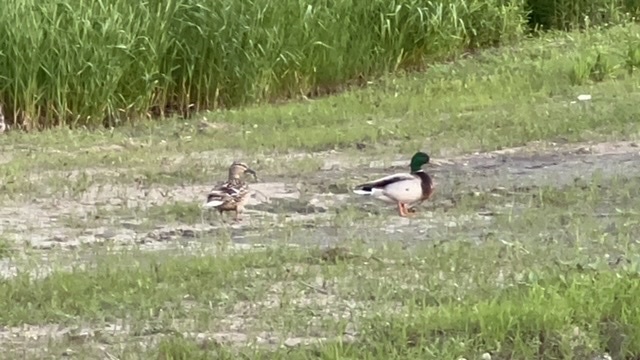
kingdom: Animalia
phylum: Chordata
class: Aves
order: Anseriformes
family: Anatidae
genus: Anas
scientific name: Anas platyrhynchos
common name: Mallard
